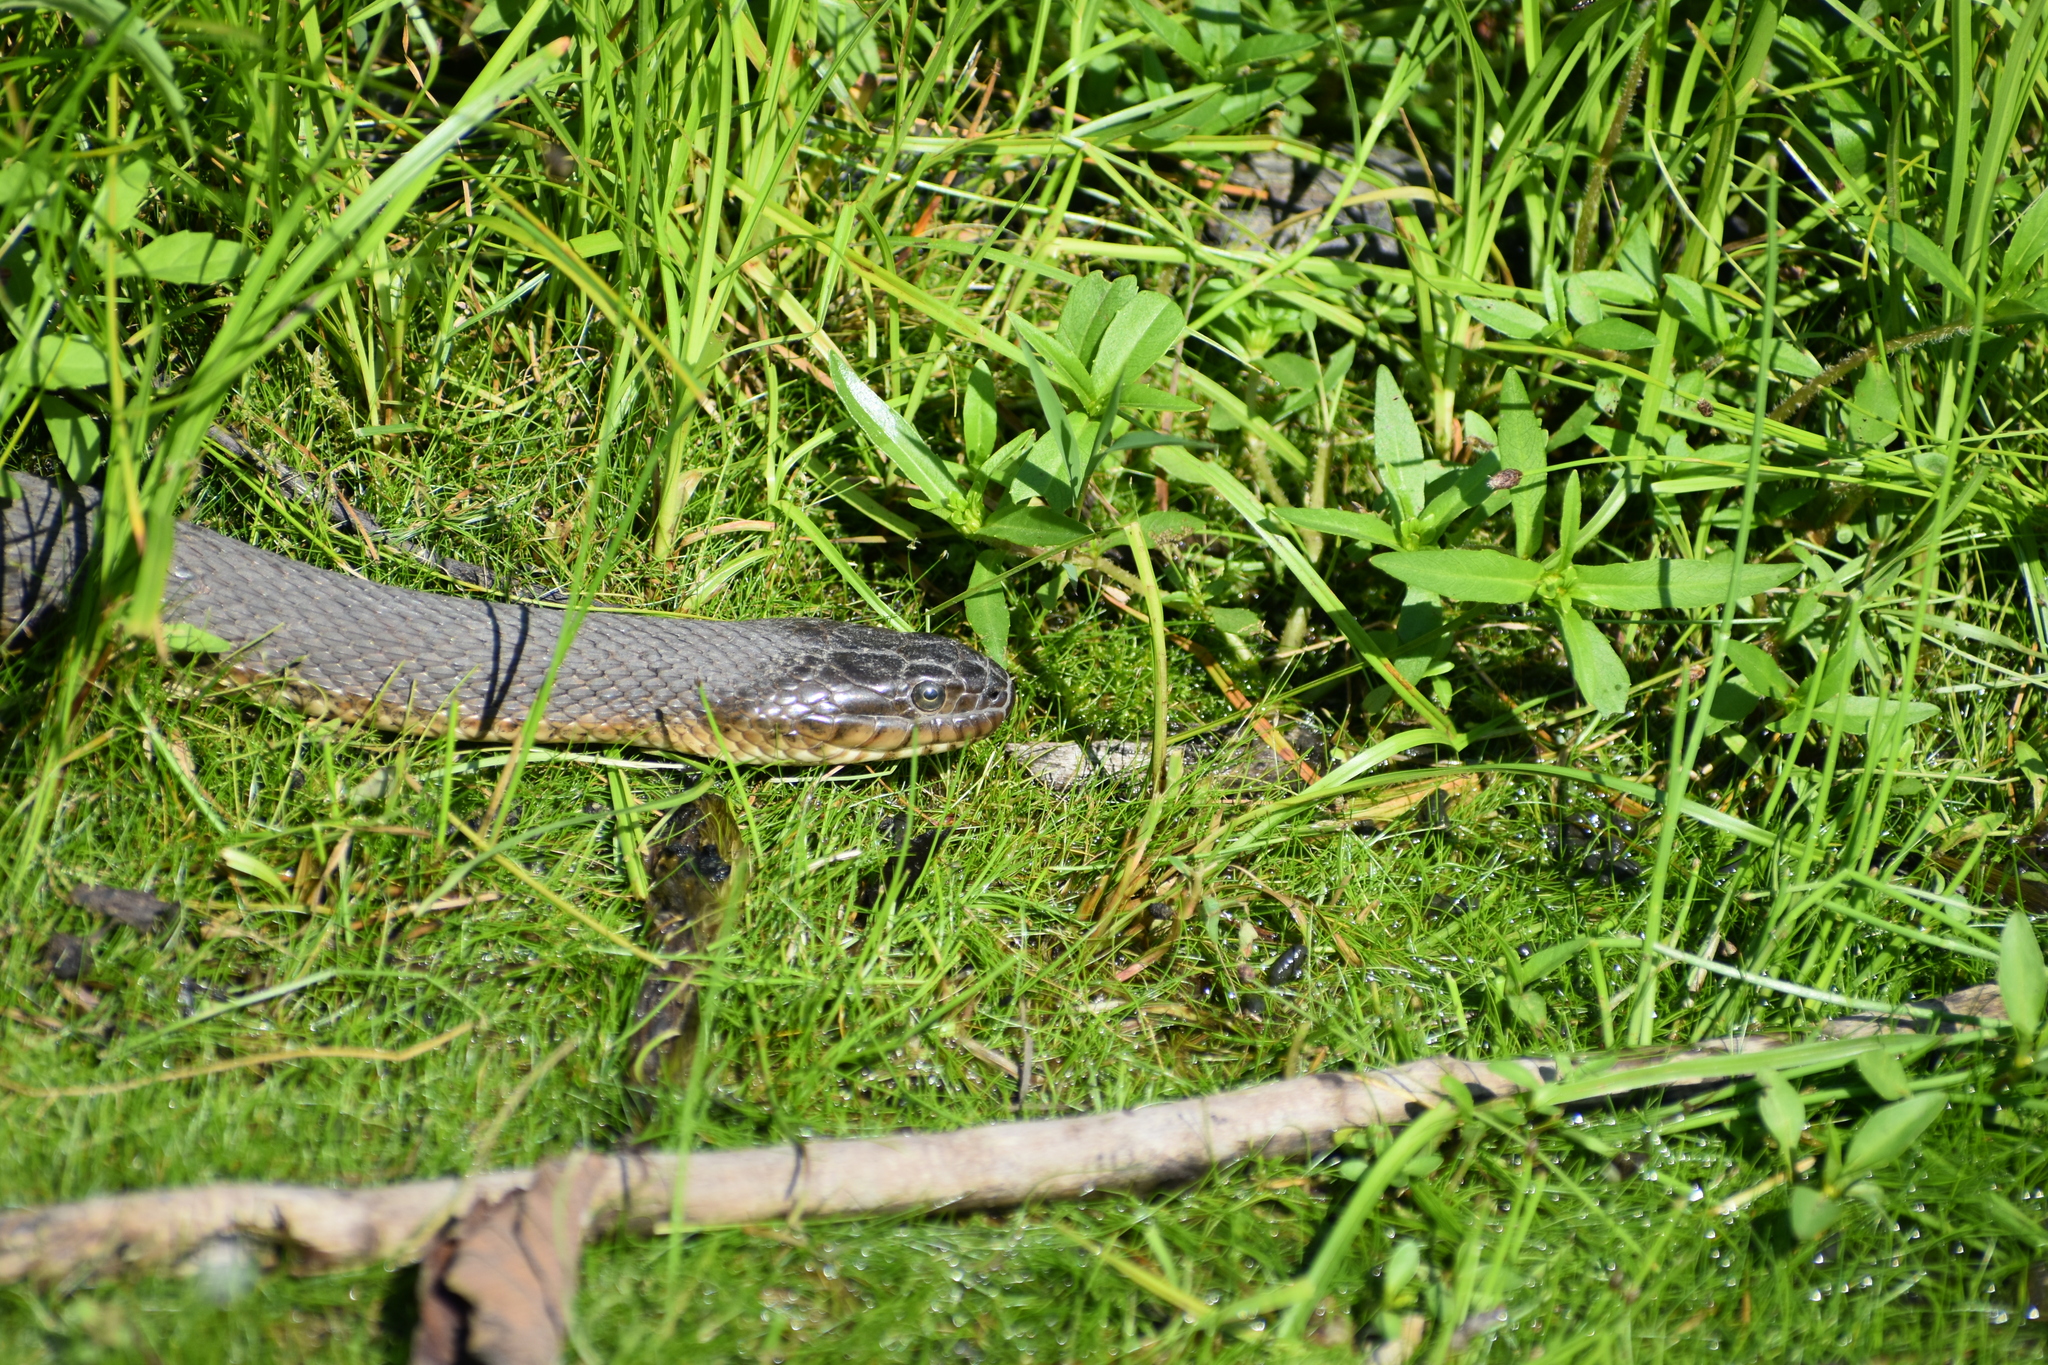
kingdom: Animalia
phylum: Chordata
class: Squamata
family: Colubridae
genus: Nerodia
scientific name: Nerodia sipedon
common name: Northern water snake
